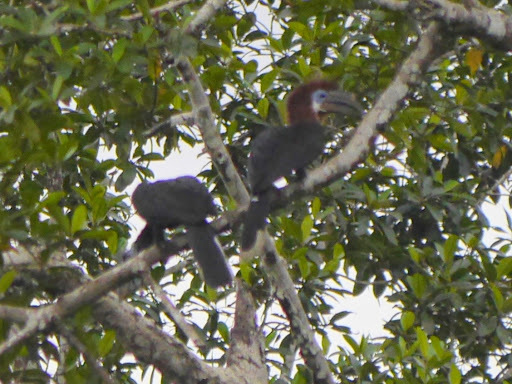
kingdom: Animalia
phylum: Chordata
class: Aves
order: Bucerotiformes
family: Bucerotidae
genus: Ceratogymna
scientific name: Ceratogymna atrata
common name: Black-casqued hornbill
